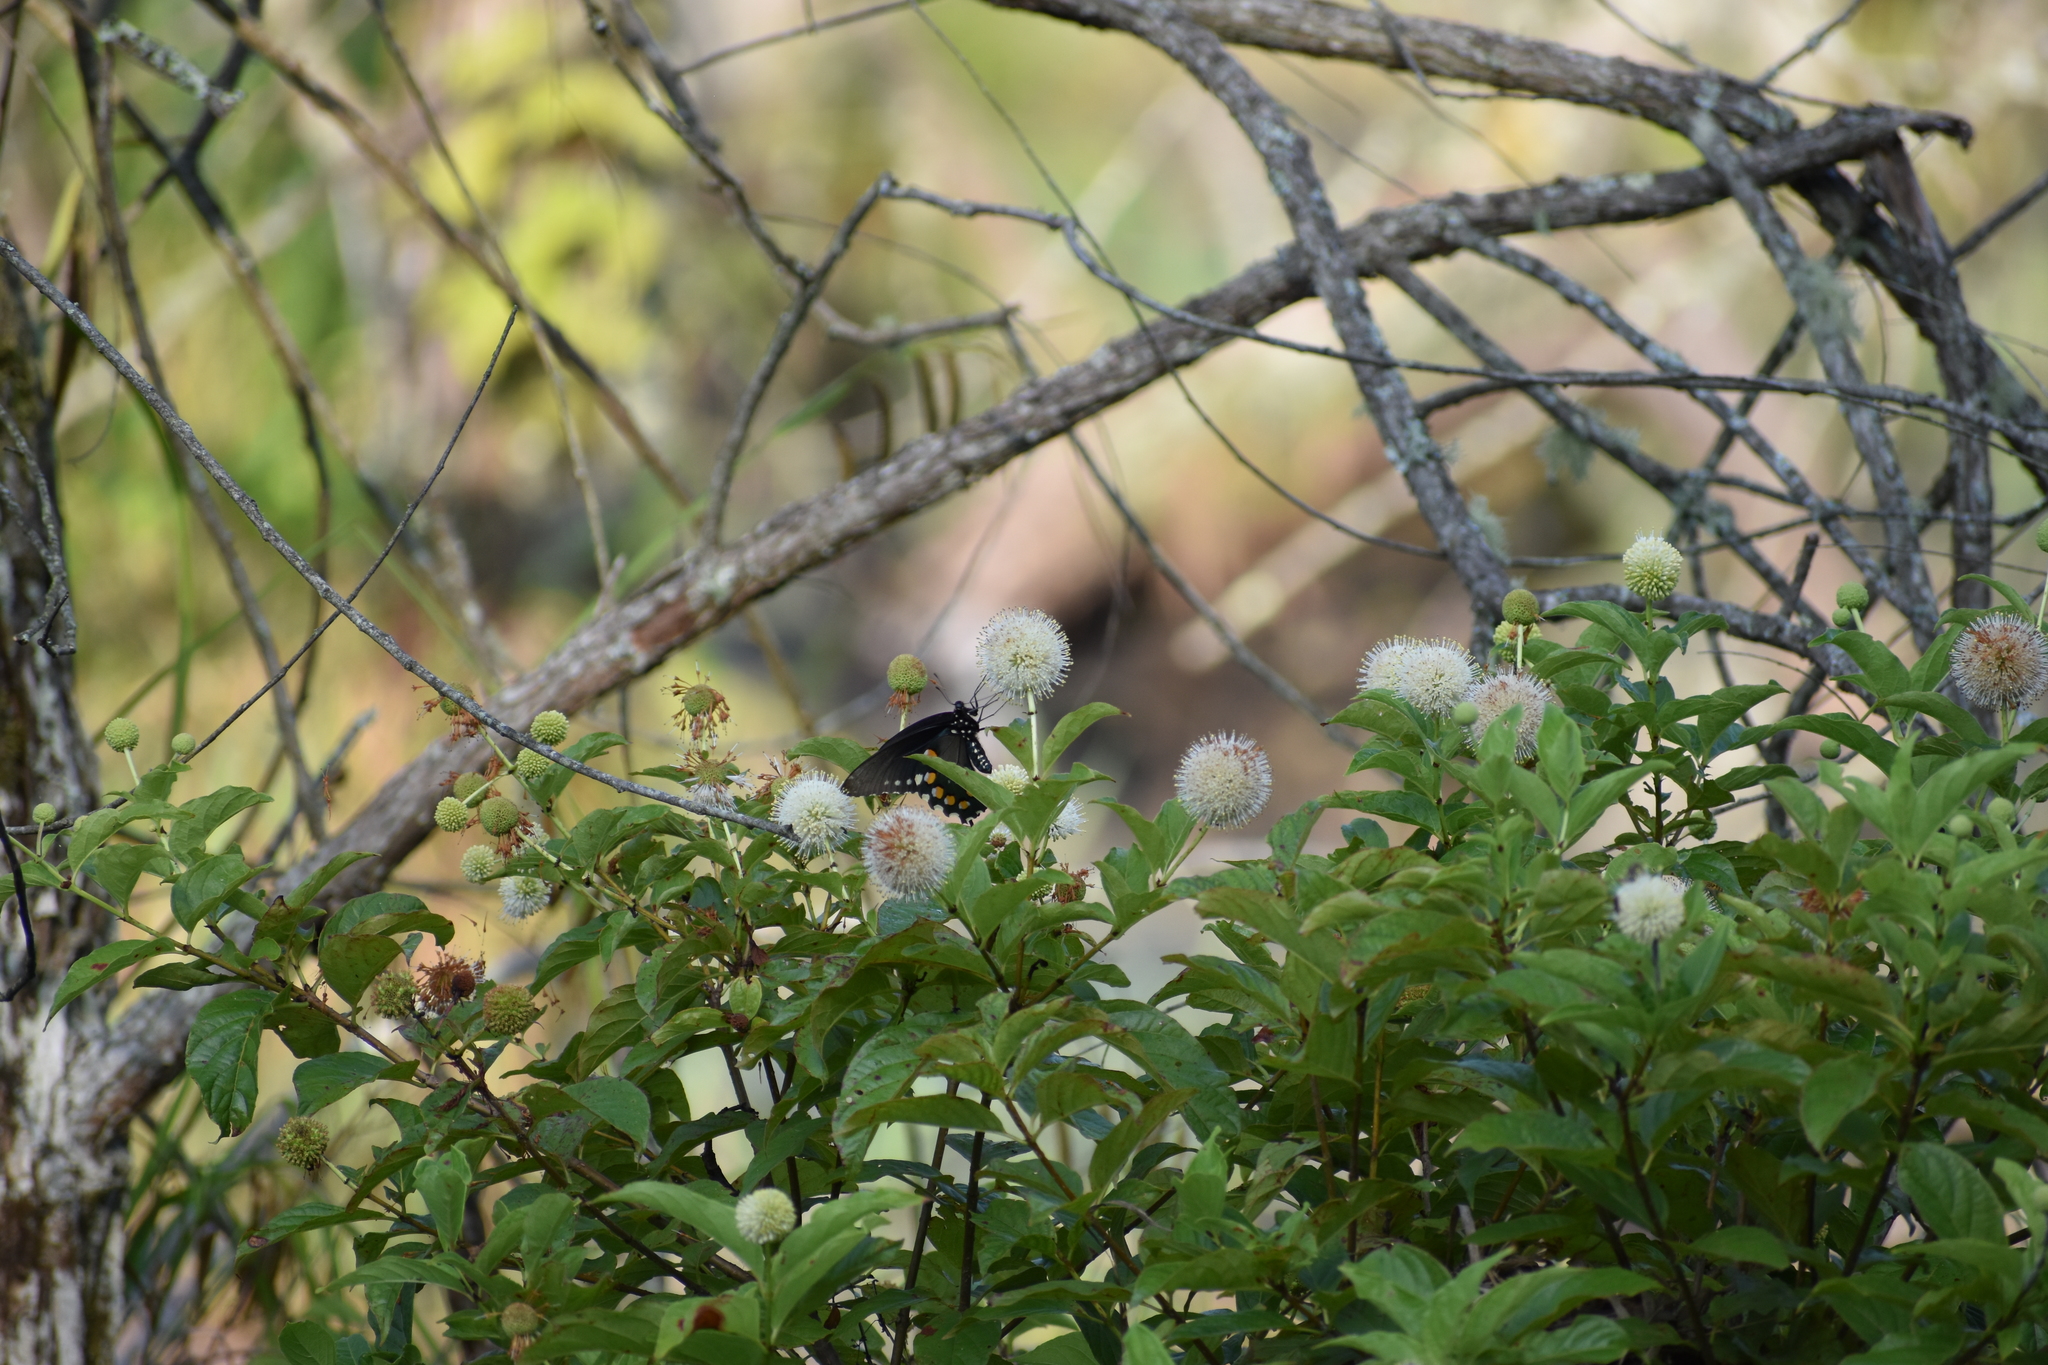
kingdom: Animalia
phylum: Arthropoda
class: Insecta
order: Lepidoptera
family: Papilionidae
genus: Battus
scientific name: Battus philenor
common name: Pipevine swallowtail
